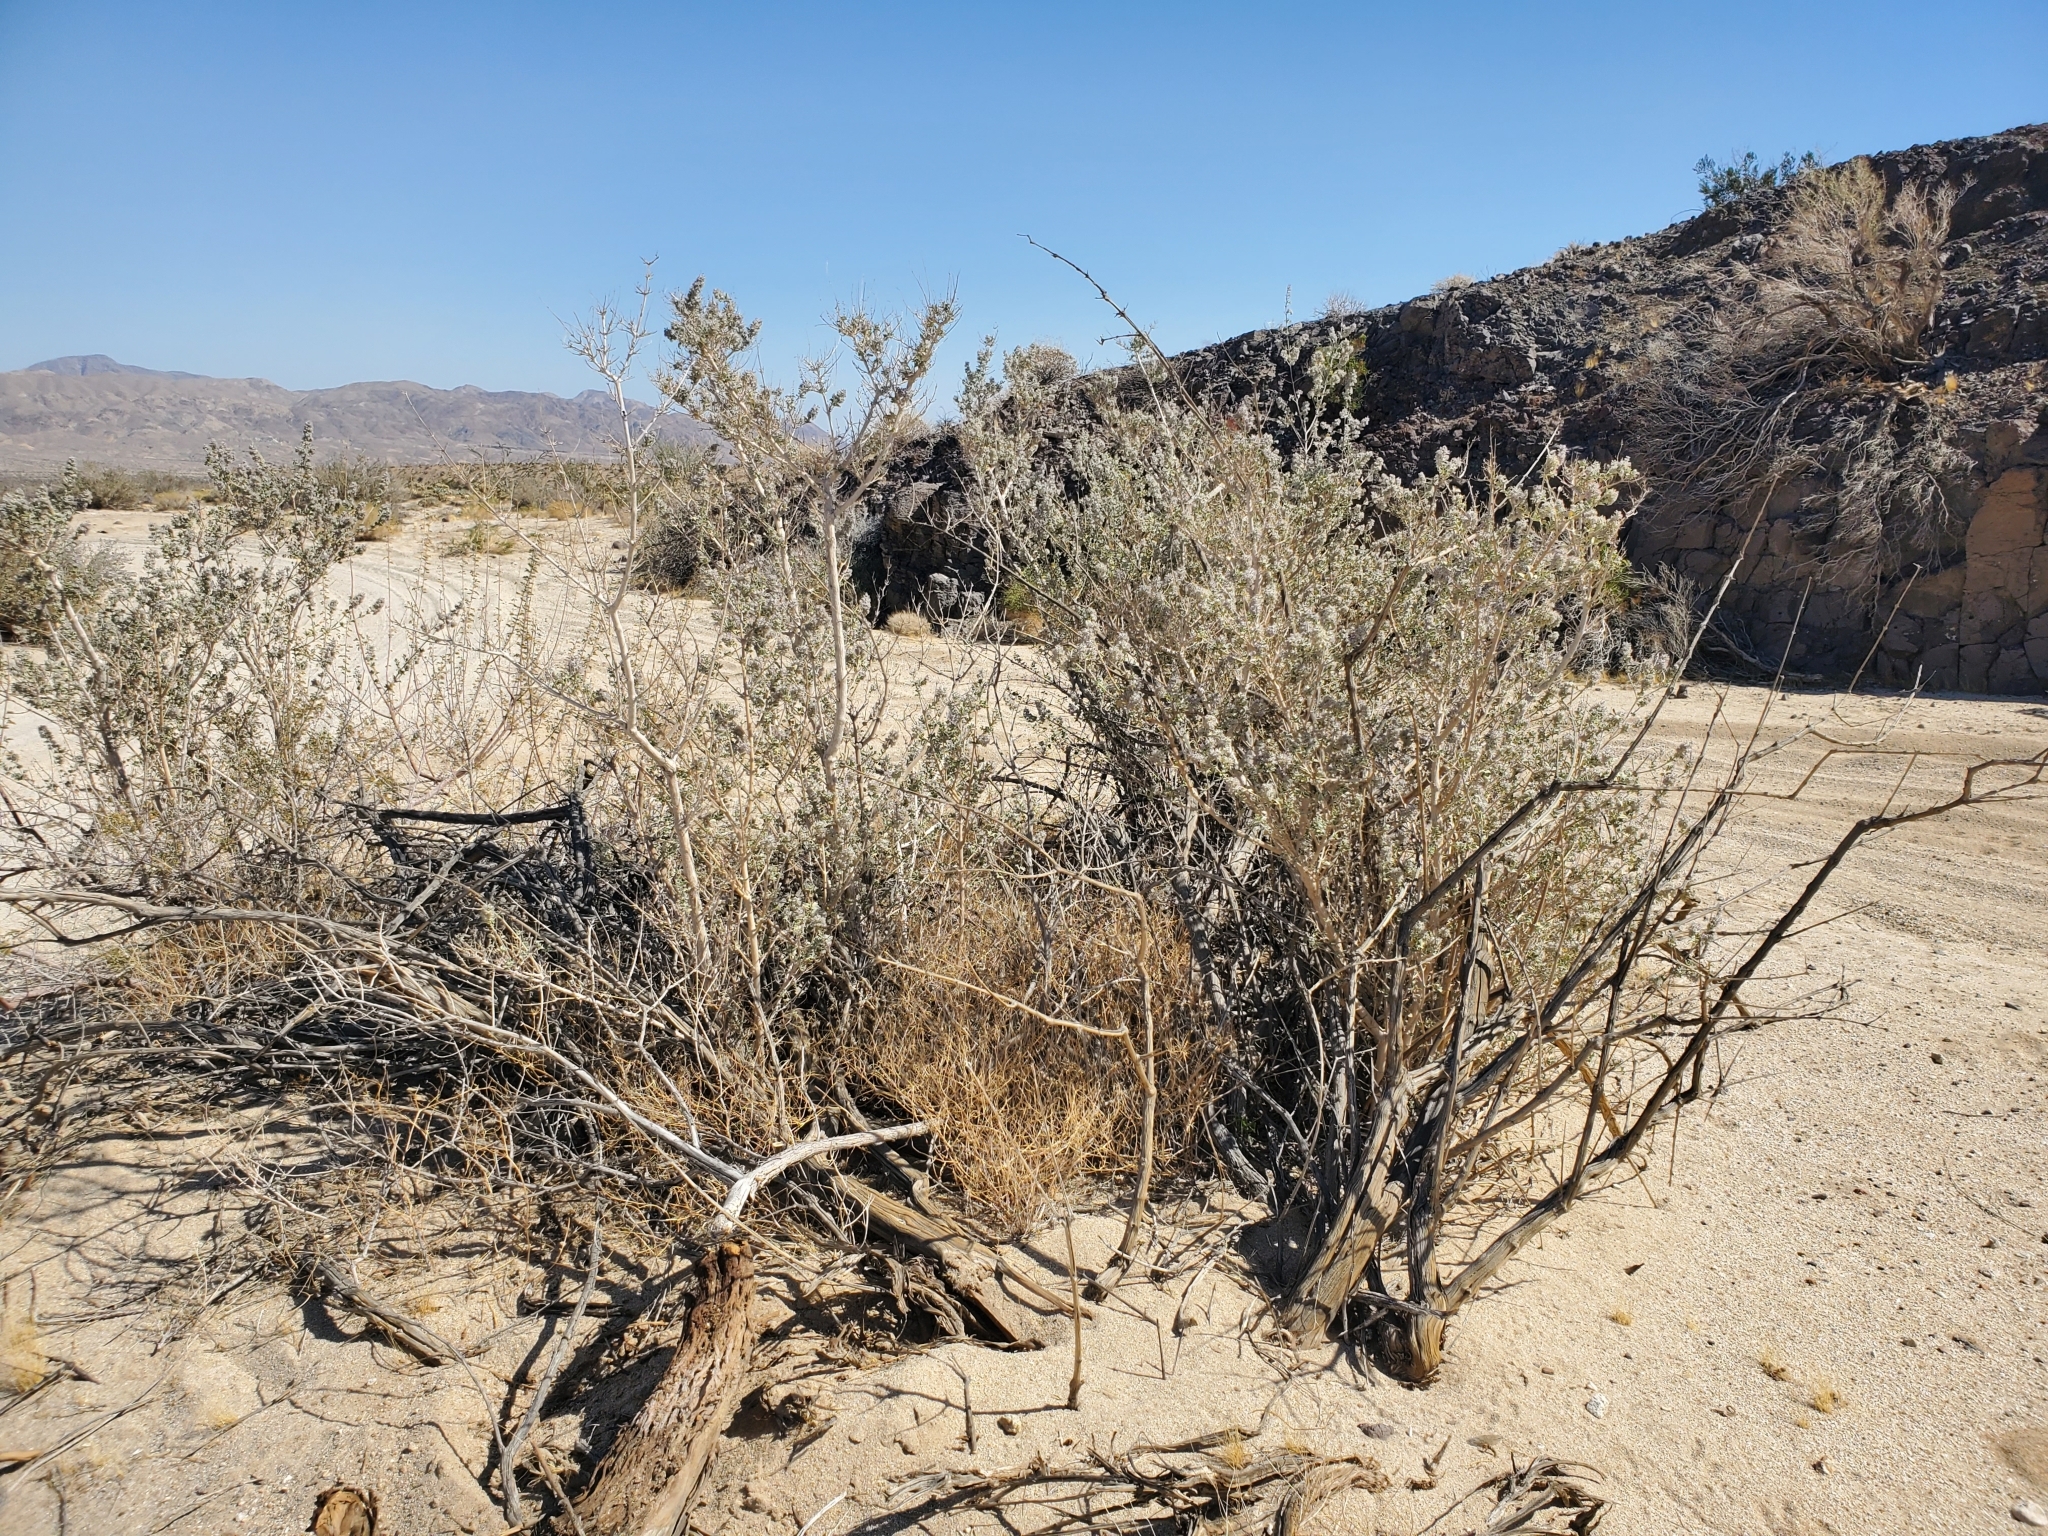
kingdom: Plantae
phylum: Tracheophyta
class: Magnoliopsida
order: Lamiales
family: Lamiaceae
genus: Condea
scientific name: Condea emoryi
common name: Chia
